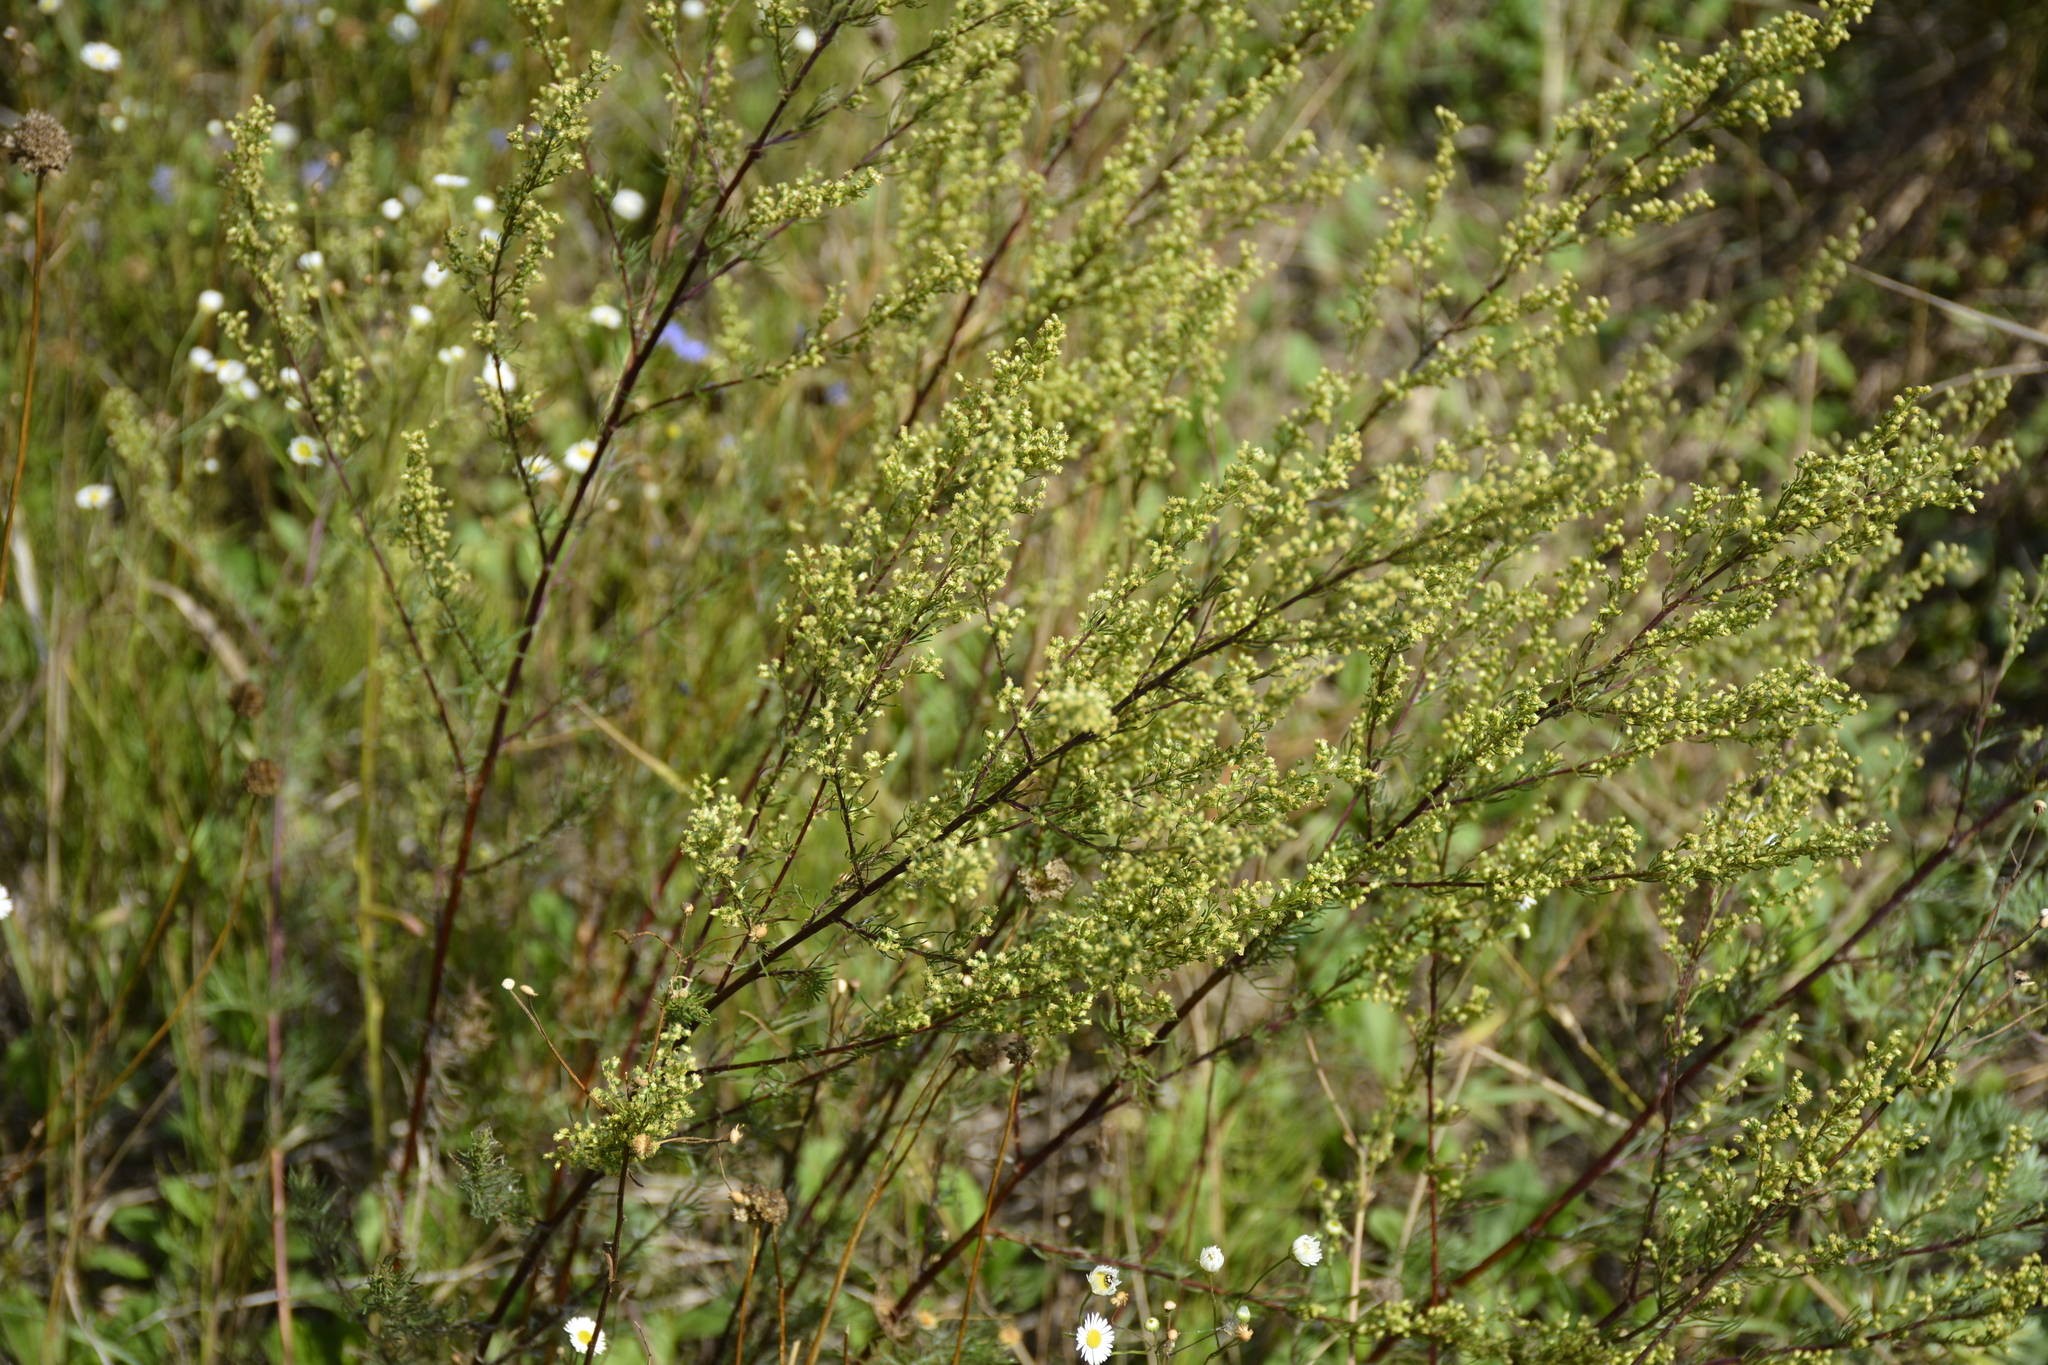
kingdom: Plantae
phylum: Tracheophyta
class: Magnoliopsida
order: Asterales
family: Asteraceae
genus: Artemisia
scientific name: Artemisia campestris
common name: Field wormwood
